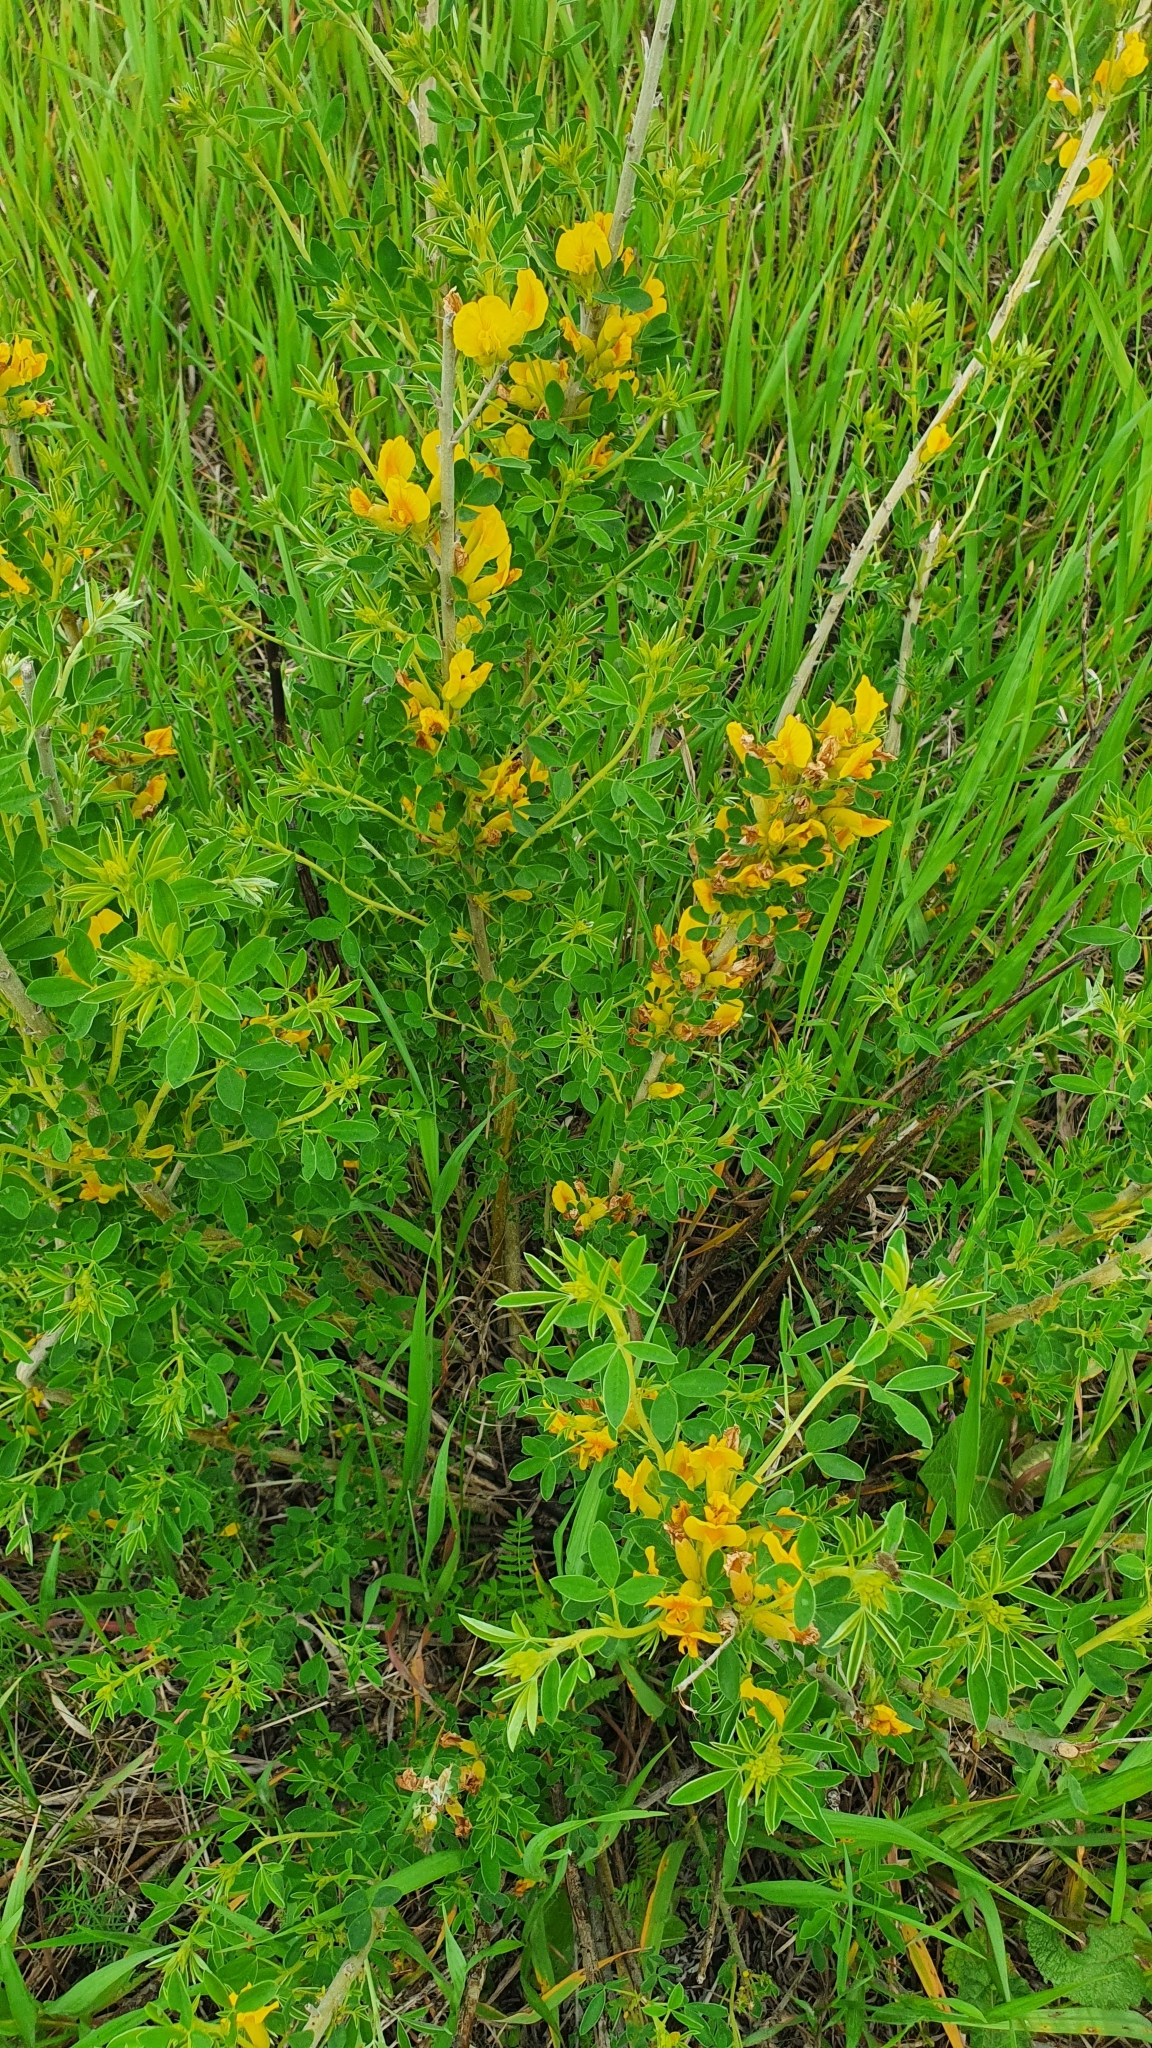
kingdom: Plantae
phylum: Tracheophyta
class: Magnoliopsida
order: Fabales
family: Fabaceae
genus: Chamaecytisus
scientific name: Chamaecytisus ruthenicus
